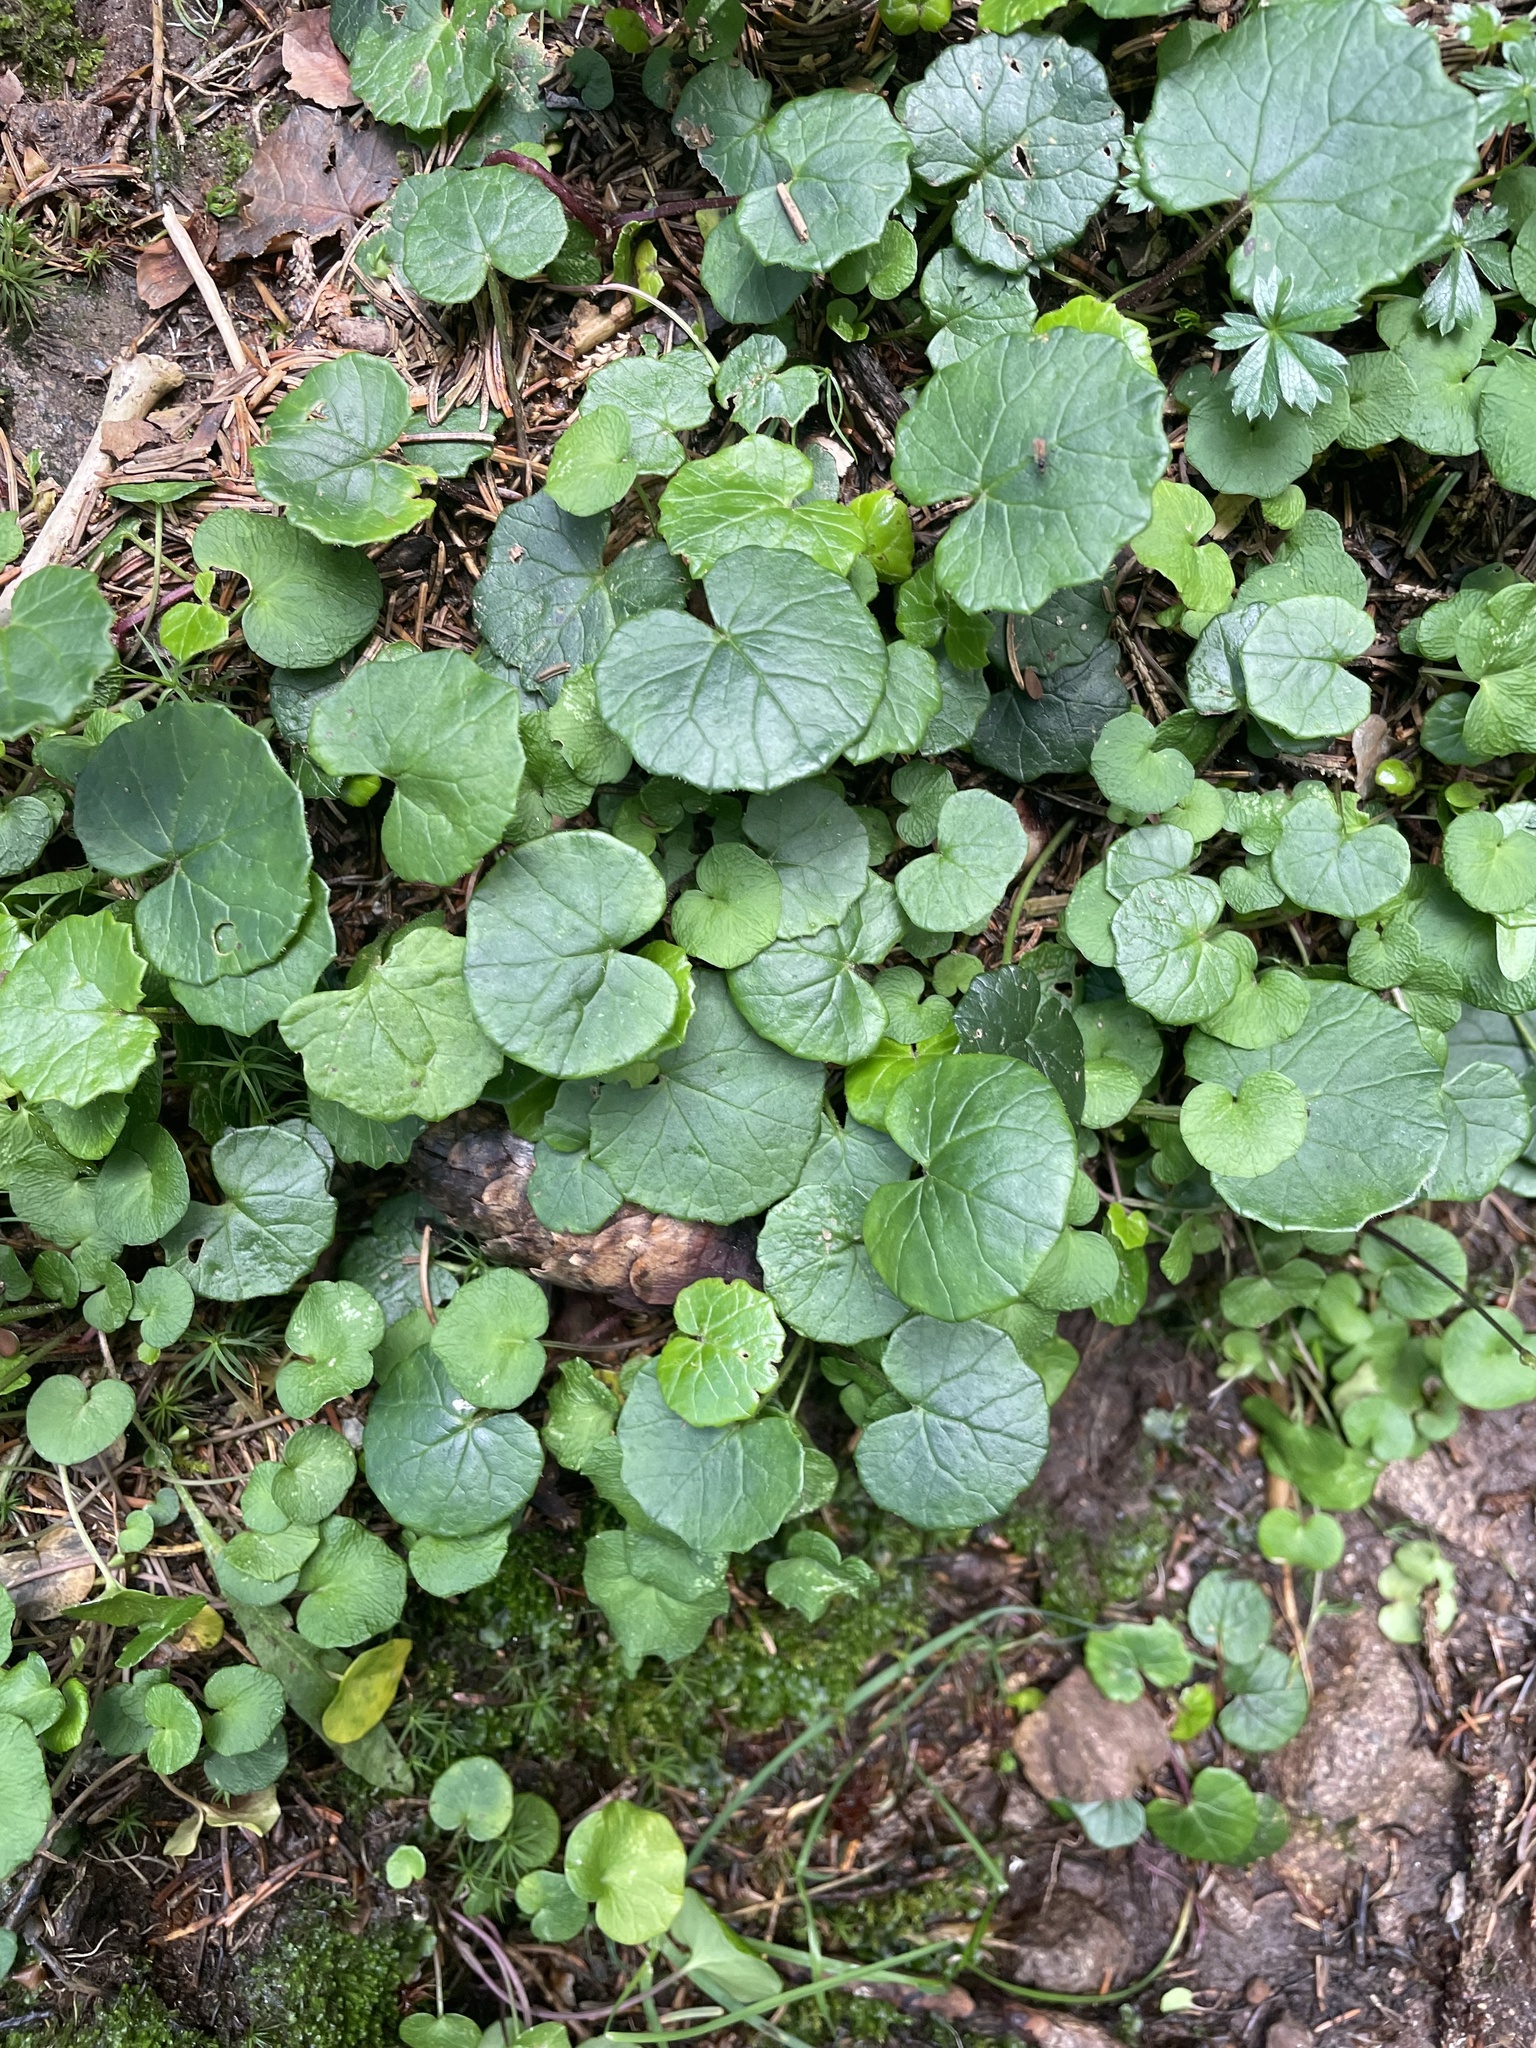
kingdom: Plantae
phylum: Tracheophyta
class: Magnoliopsida
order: Ranunculales
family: Ranunculaceae
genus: Ficaria
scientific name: Ficaria verna
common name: Lesser celandine
